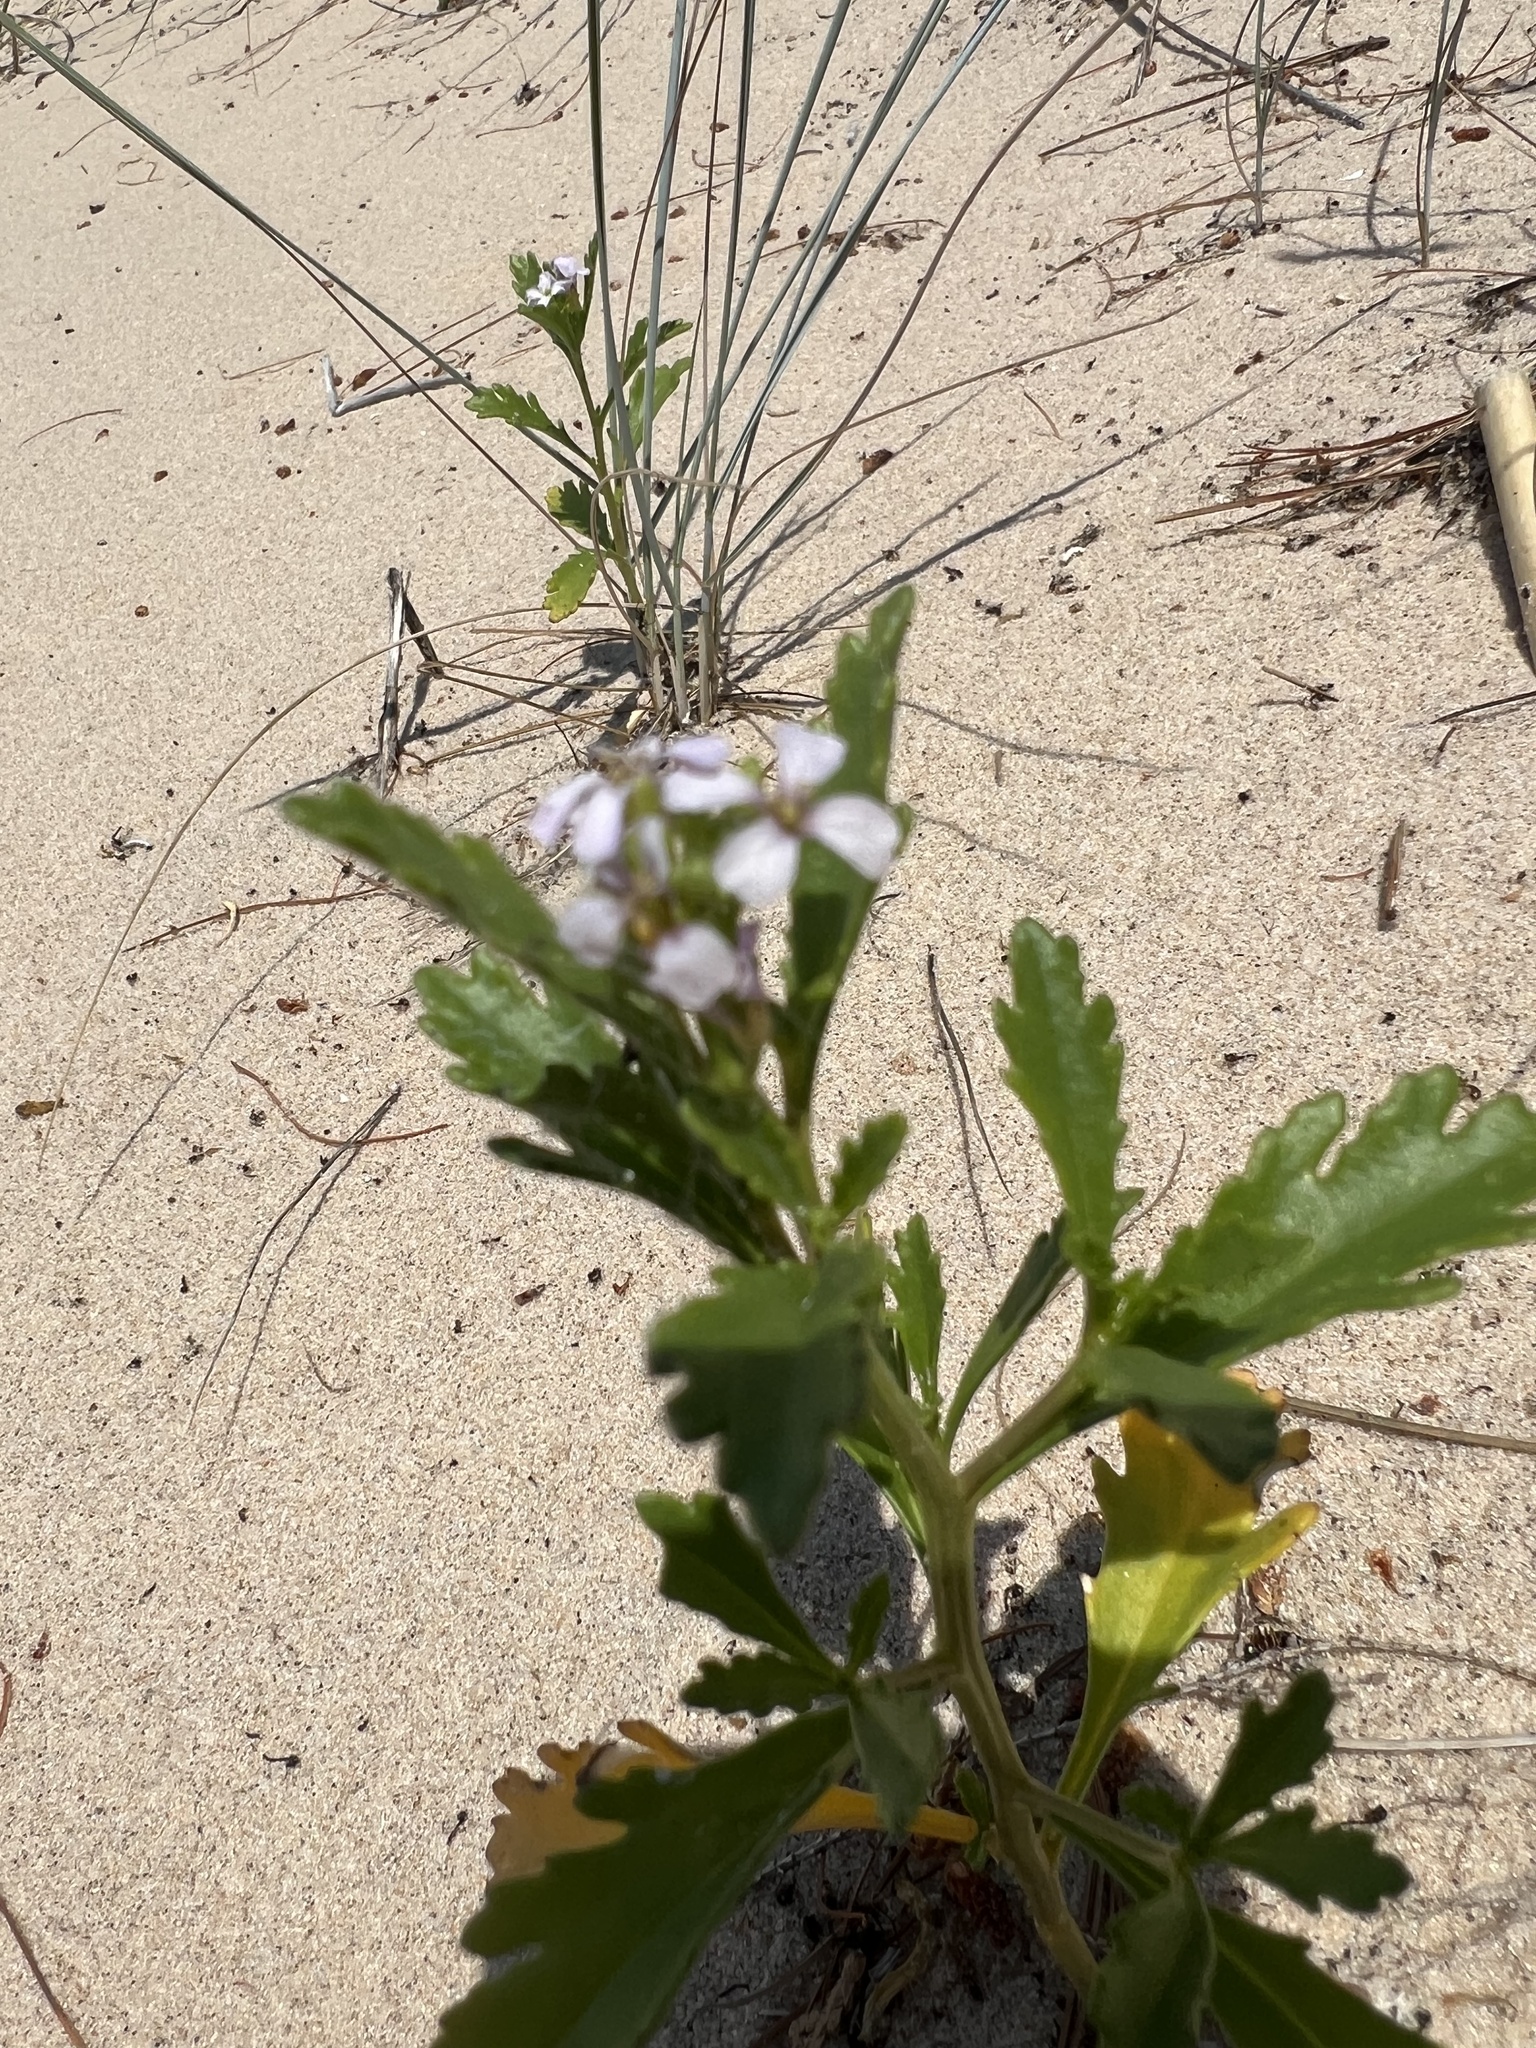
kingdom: Plantae
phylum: Tracheophyta
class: Magnoliopsida
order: Brassicales
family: Brassicaceae
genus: Cakile
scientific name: Cakile edentula
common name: American sea rocket
